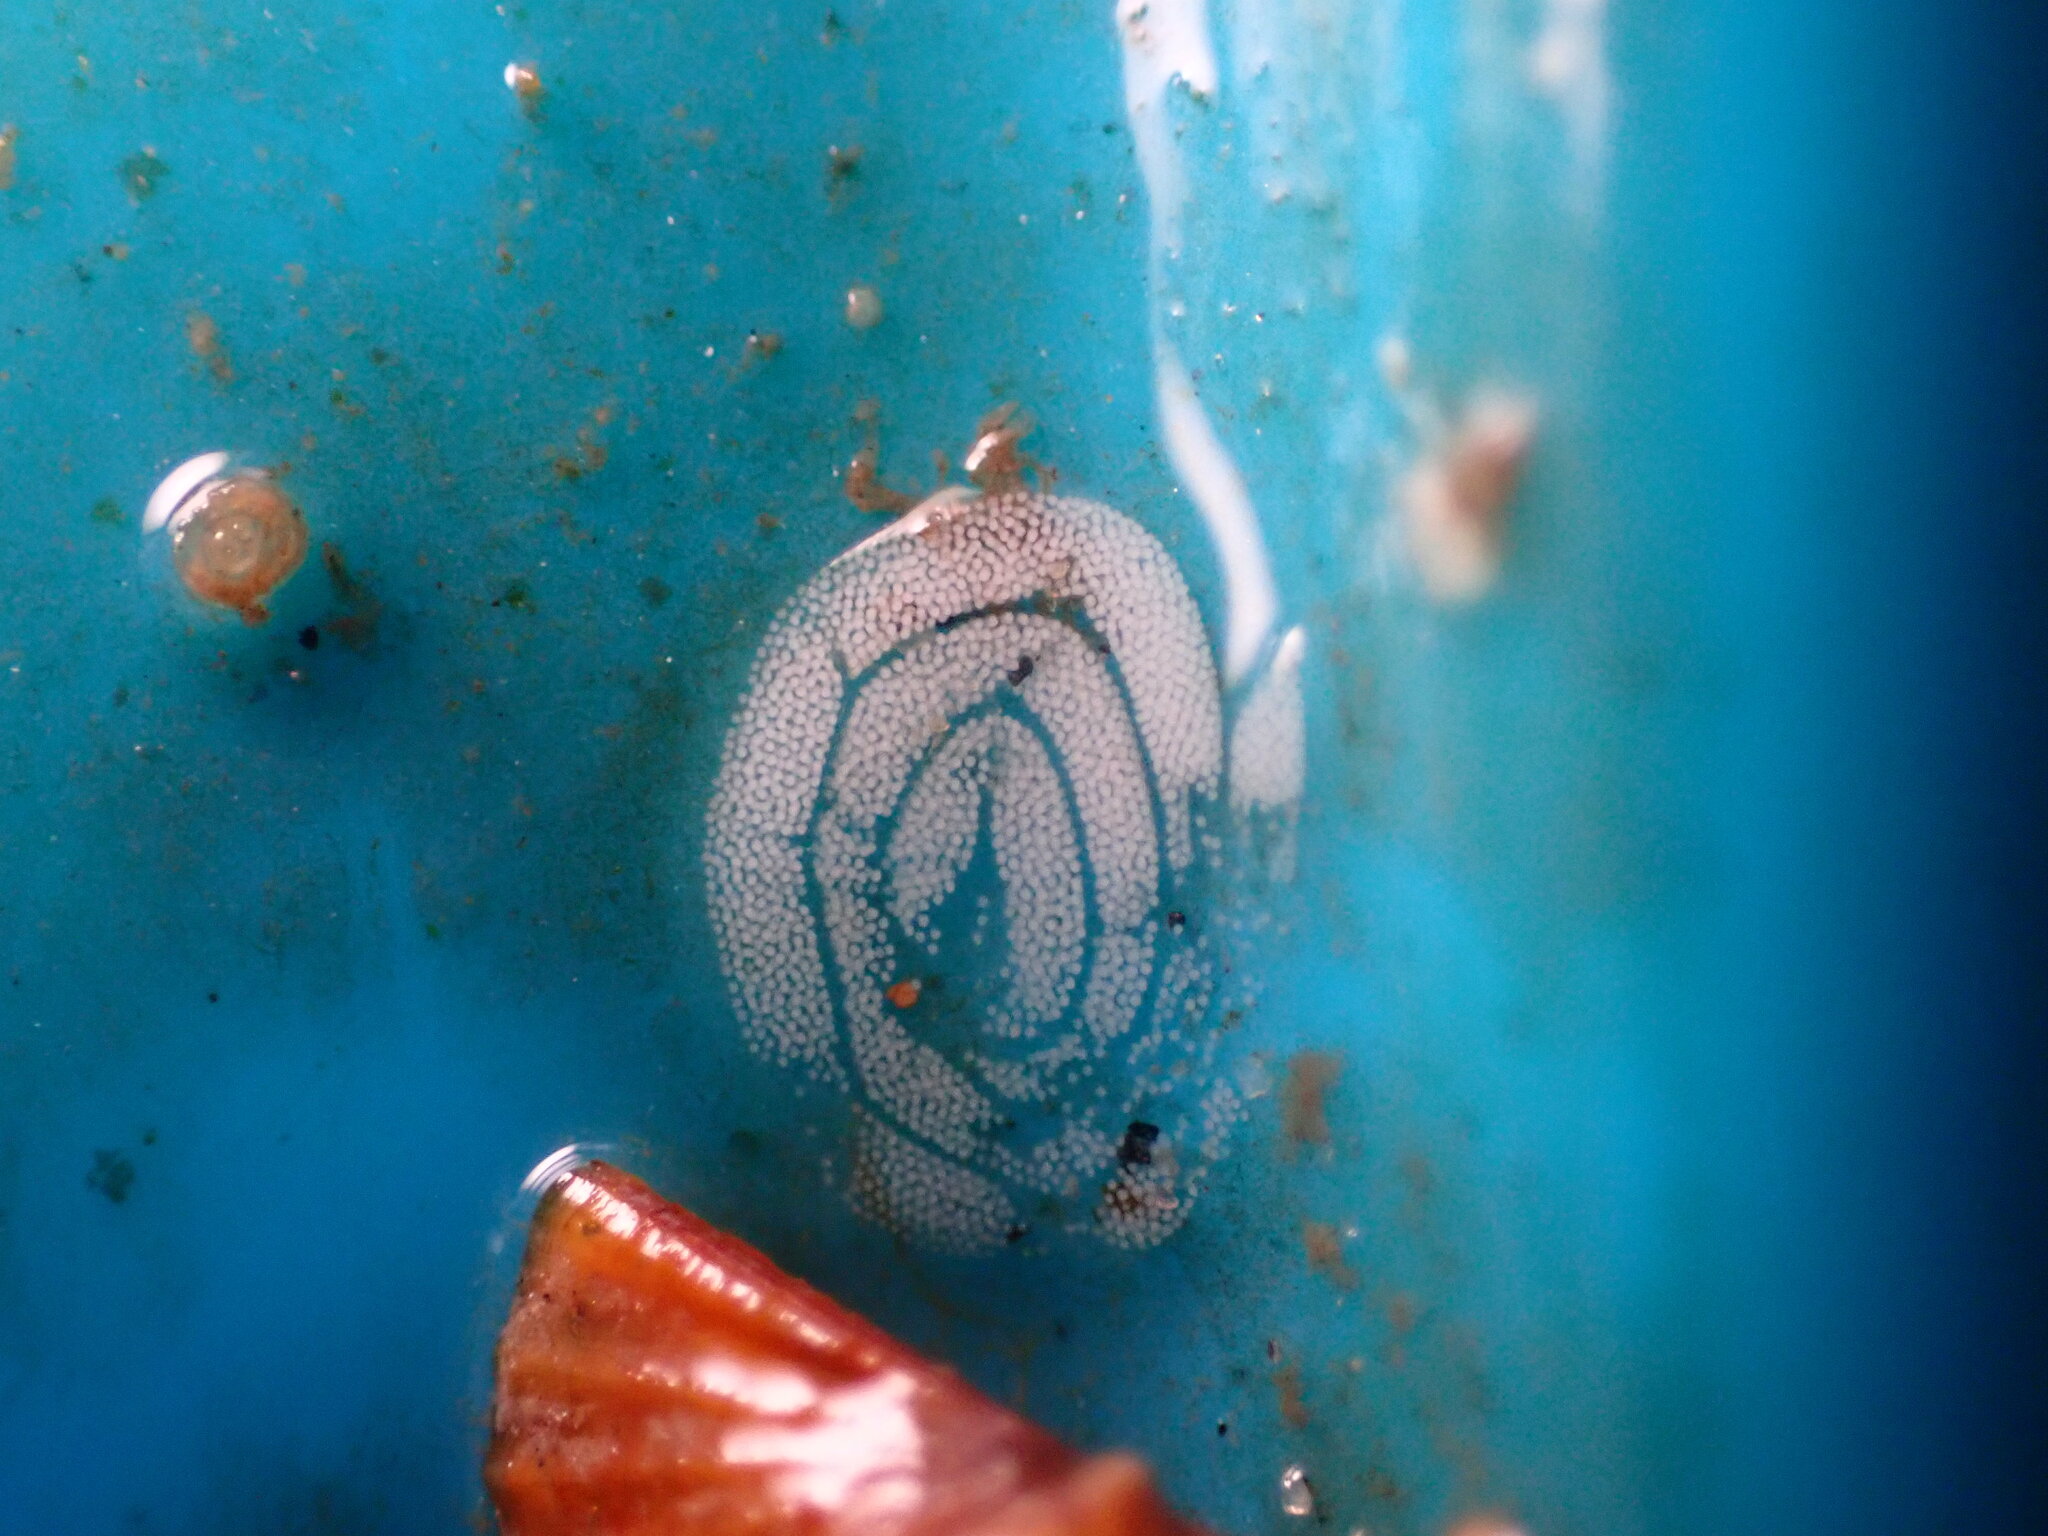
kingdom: Animalia
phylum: Mollusca
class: Gastropoda
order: Nudibranchia
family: Aeolidiidae
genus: Anteaeolidiella
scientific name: Anteaeolidiella chromosoma
